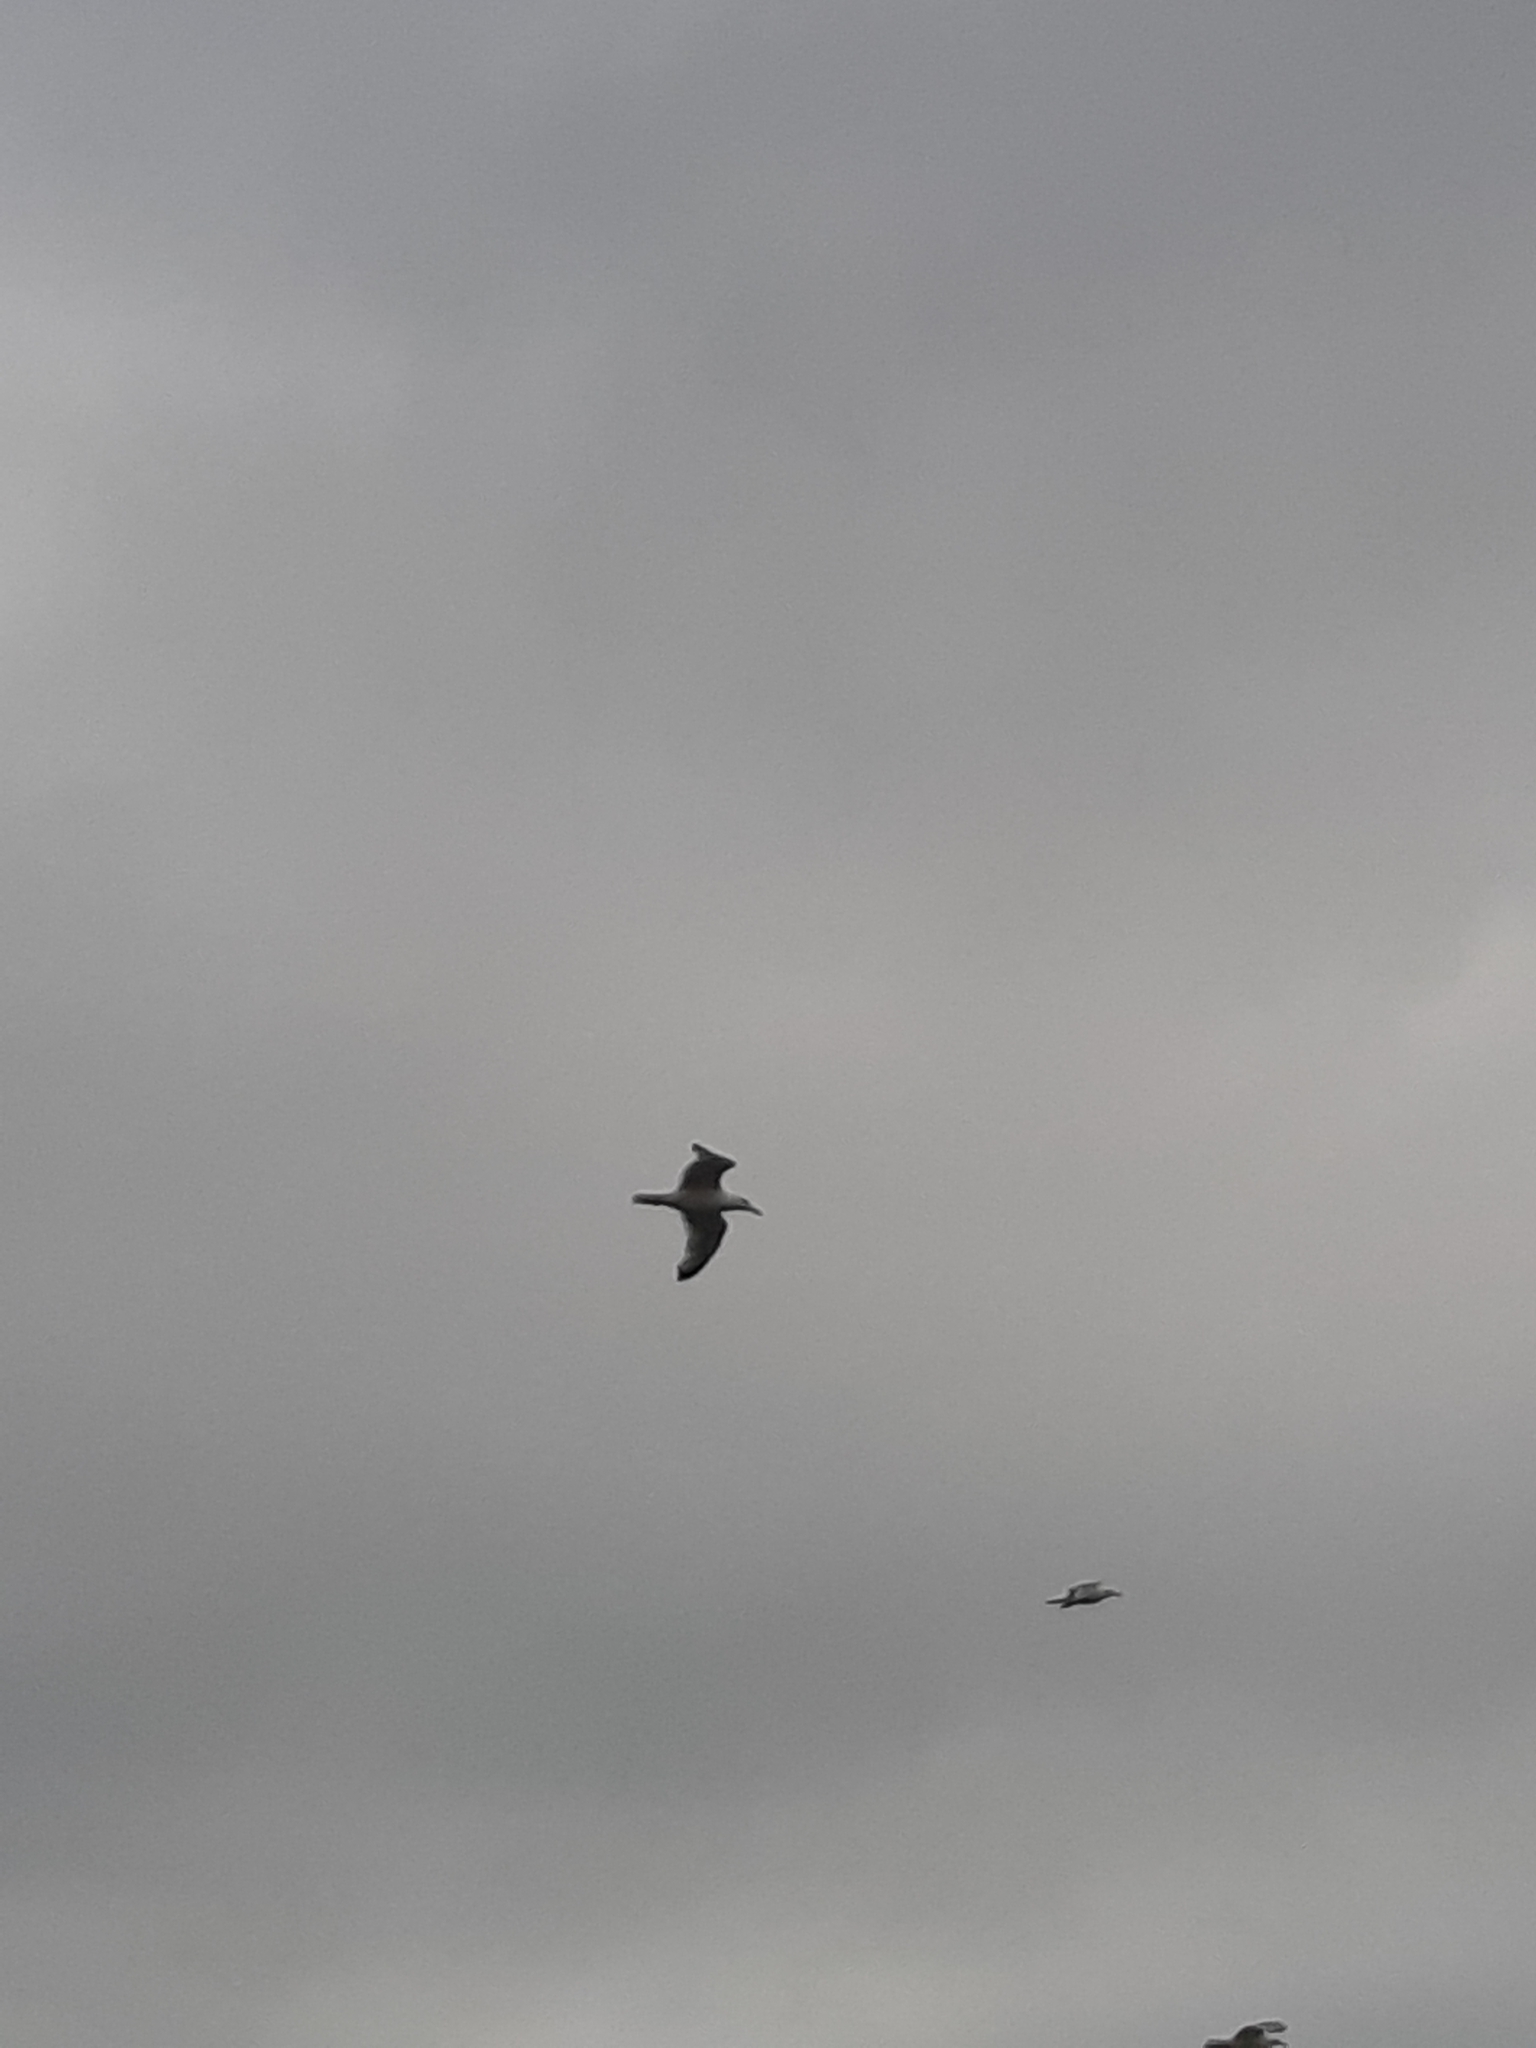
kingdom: Animalia
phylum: Chordata
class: Aves
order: Charadriiformes
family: Laridae
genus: Larus
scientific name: Larus argentatus
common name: Herring gull
